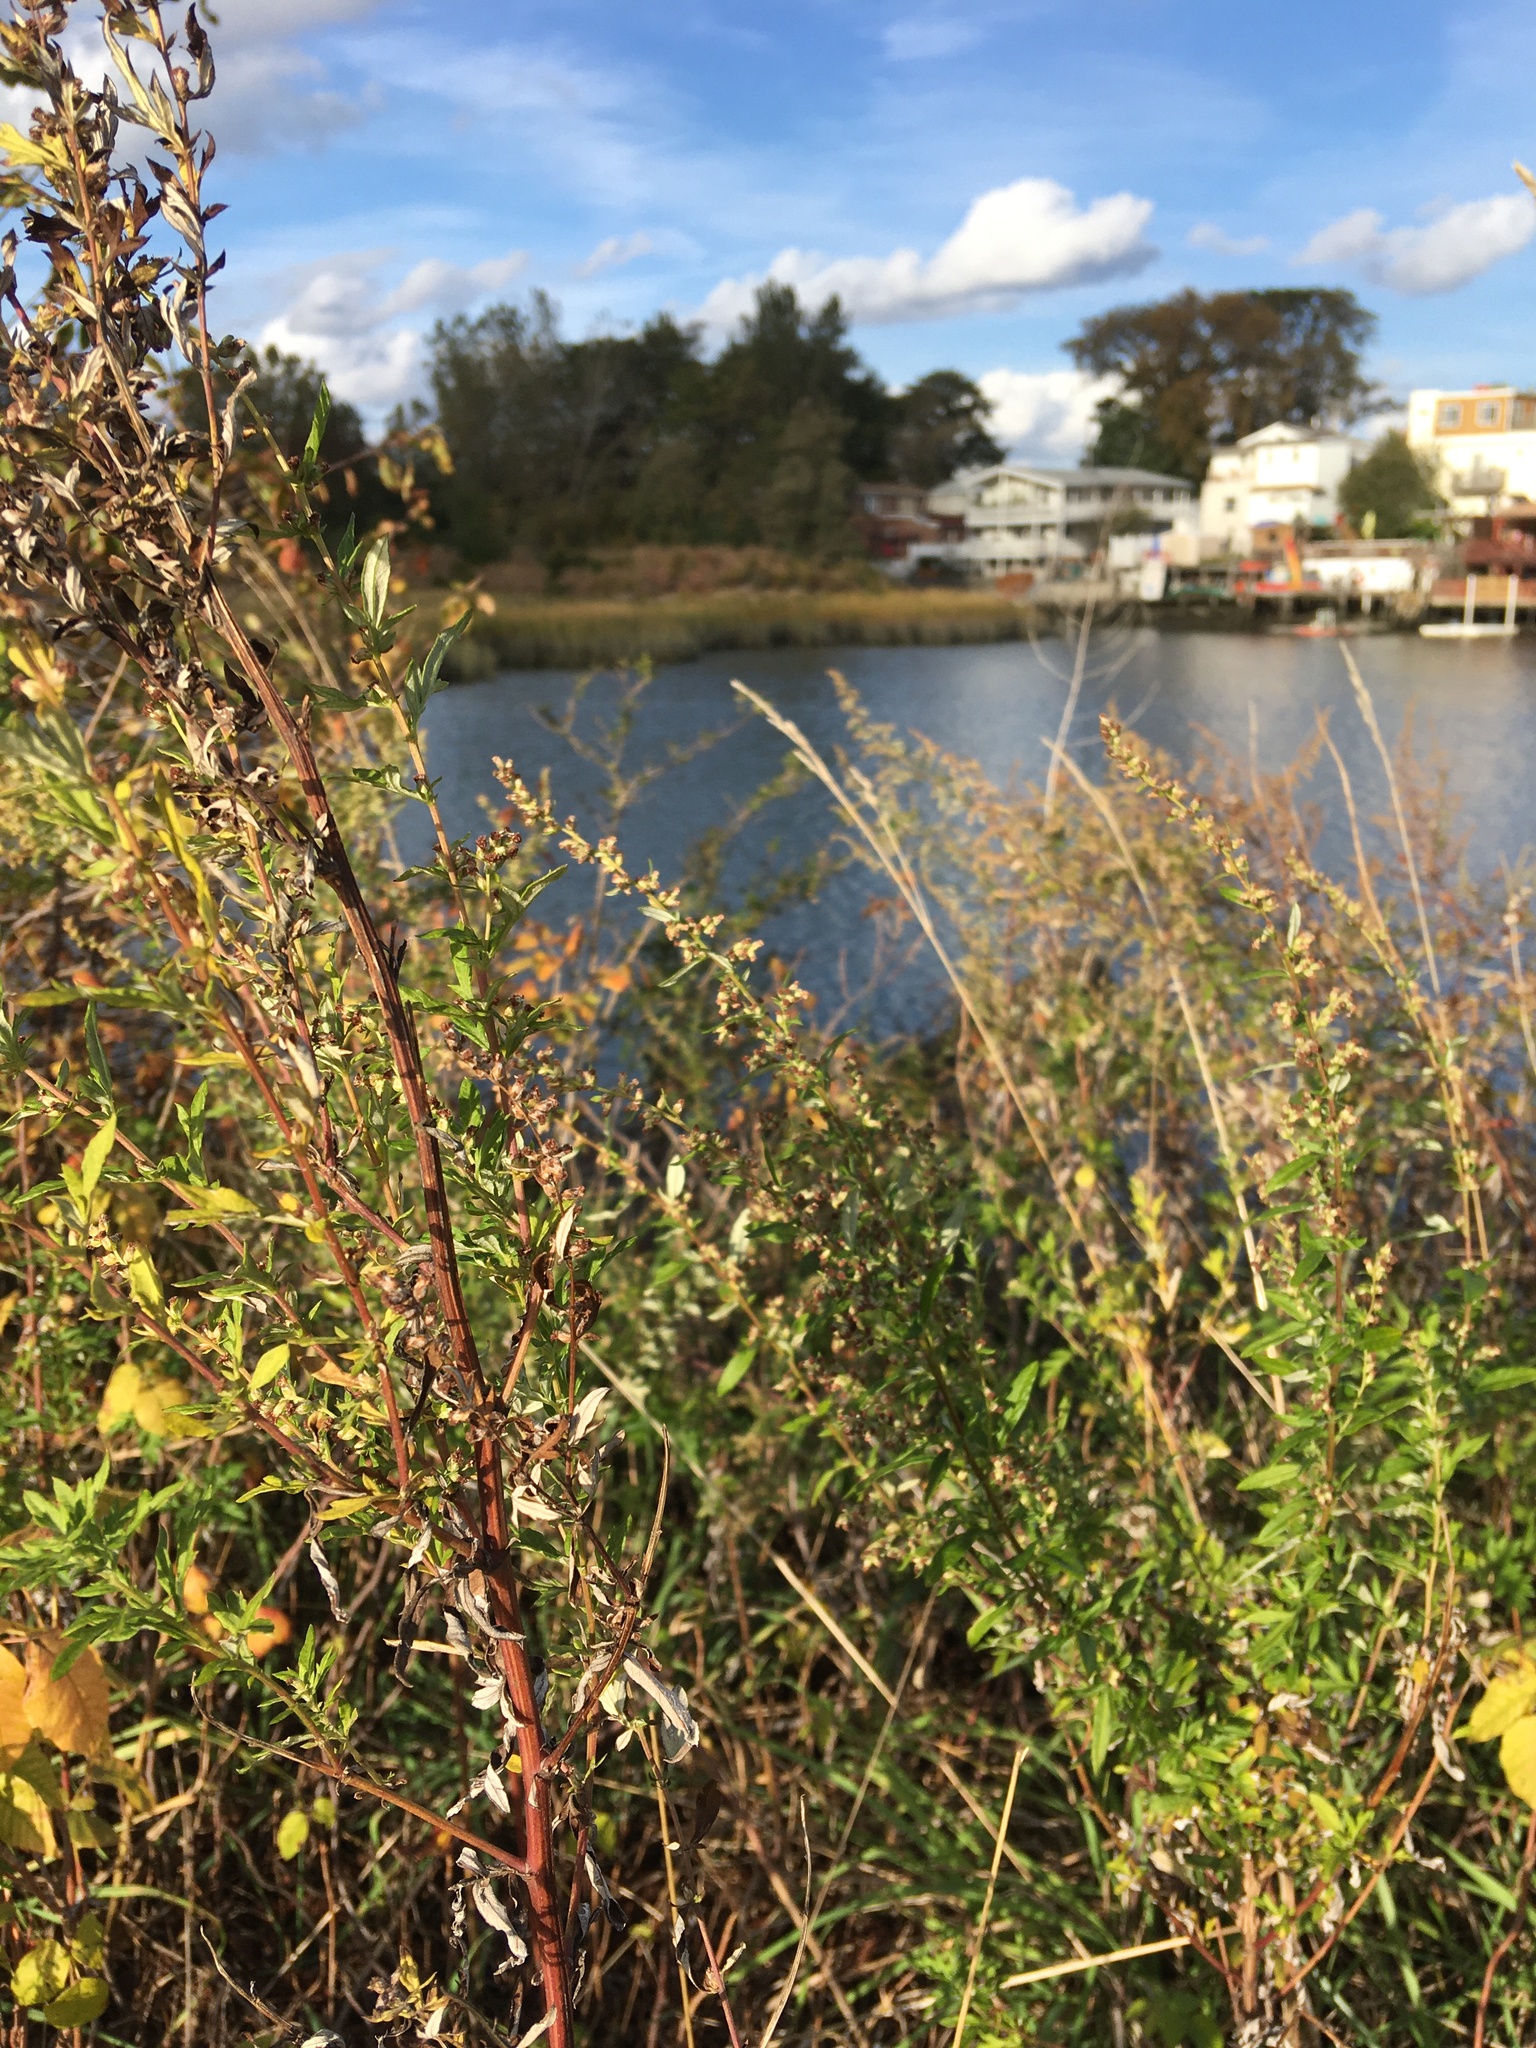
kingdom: Plantae
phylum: Tracheophyta
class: Magnoliopsida
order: Asterales
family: Asteraceae
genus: Artemisia
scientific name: Artemisia vulgaris
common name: Mugwort
